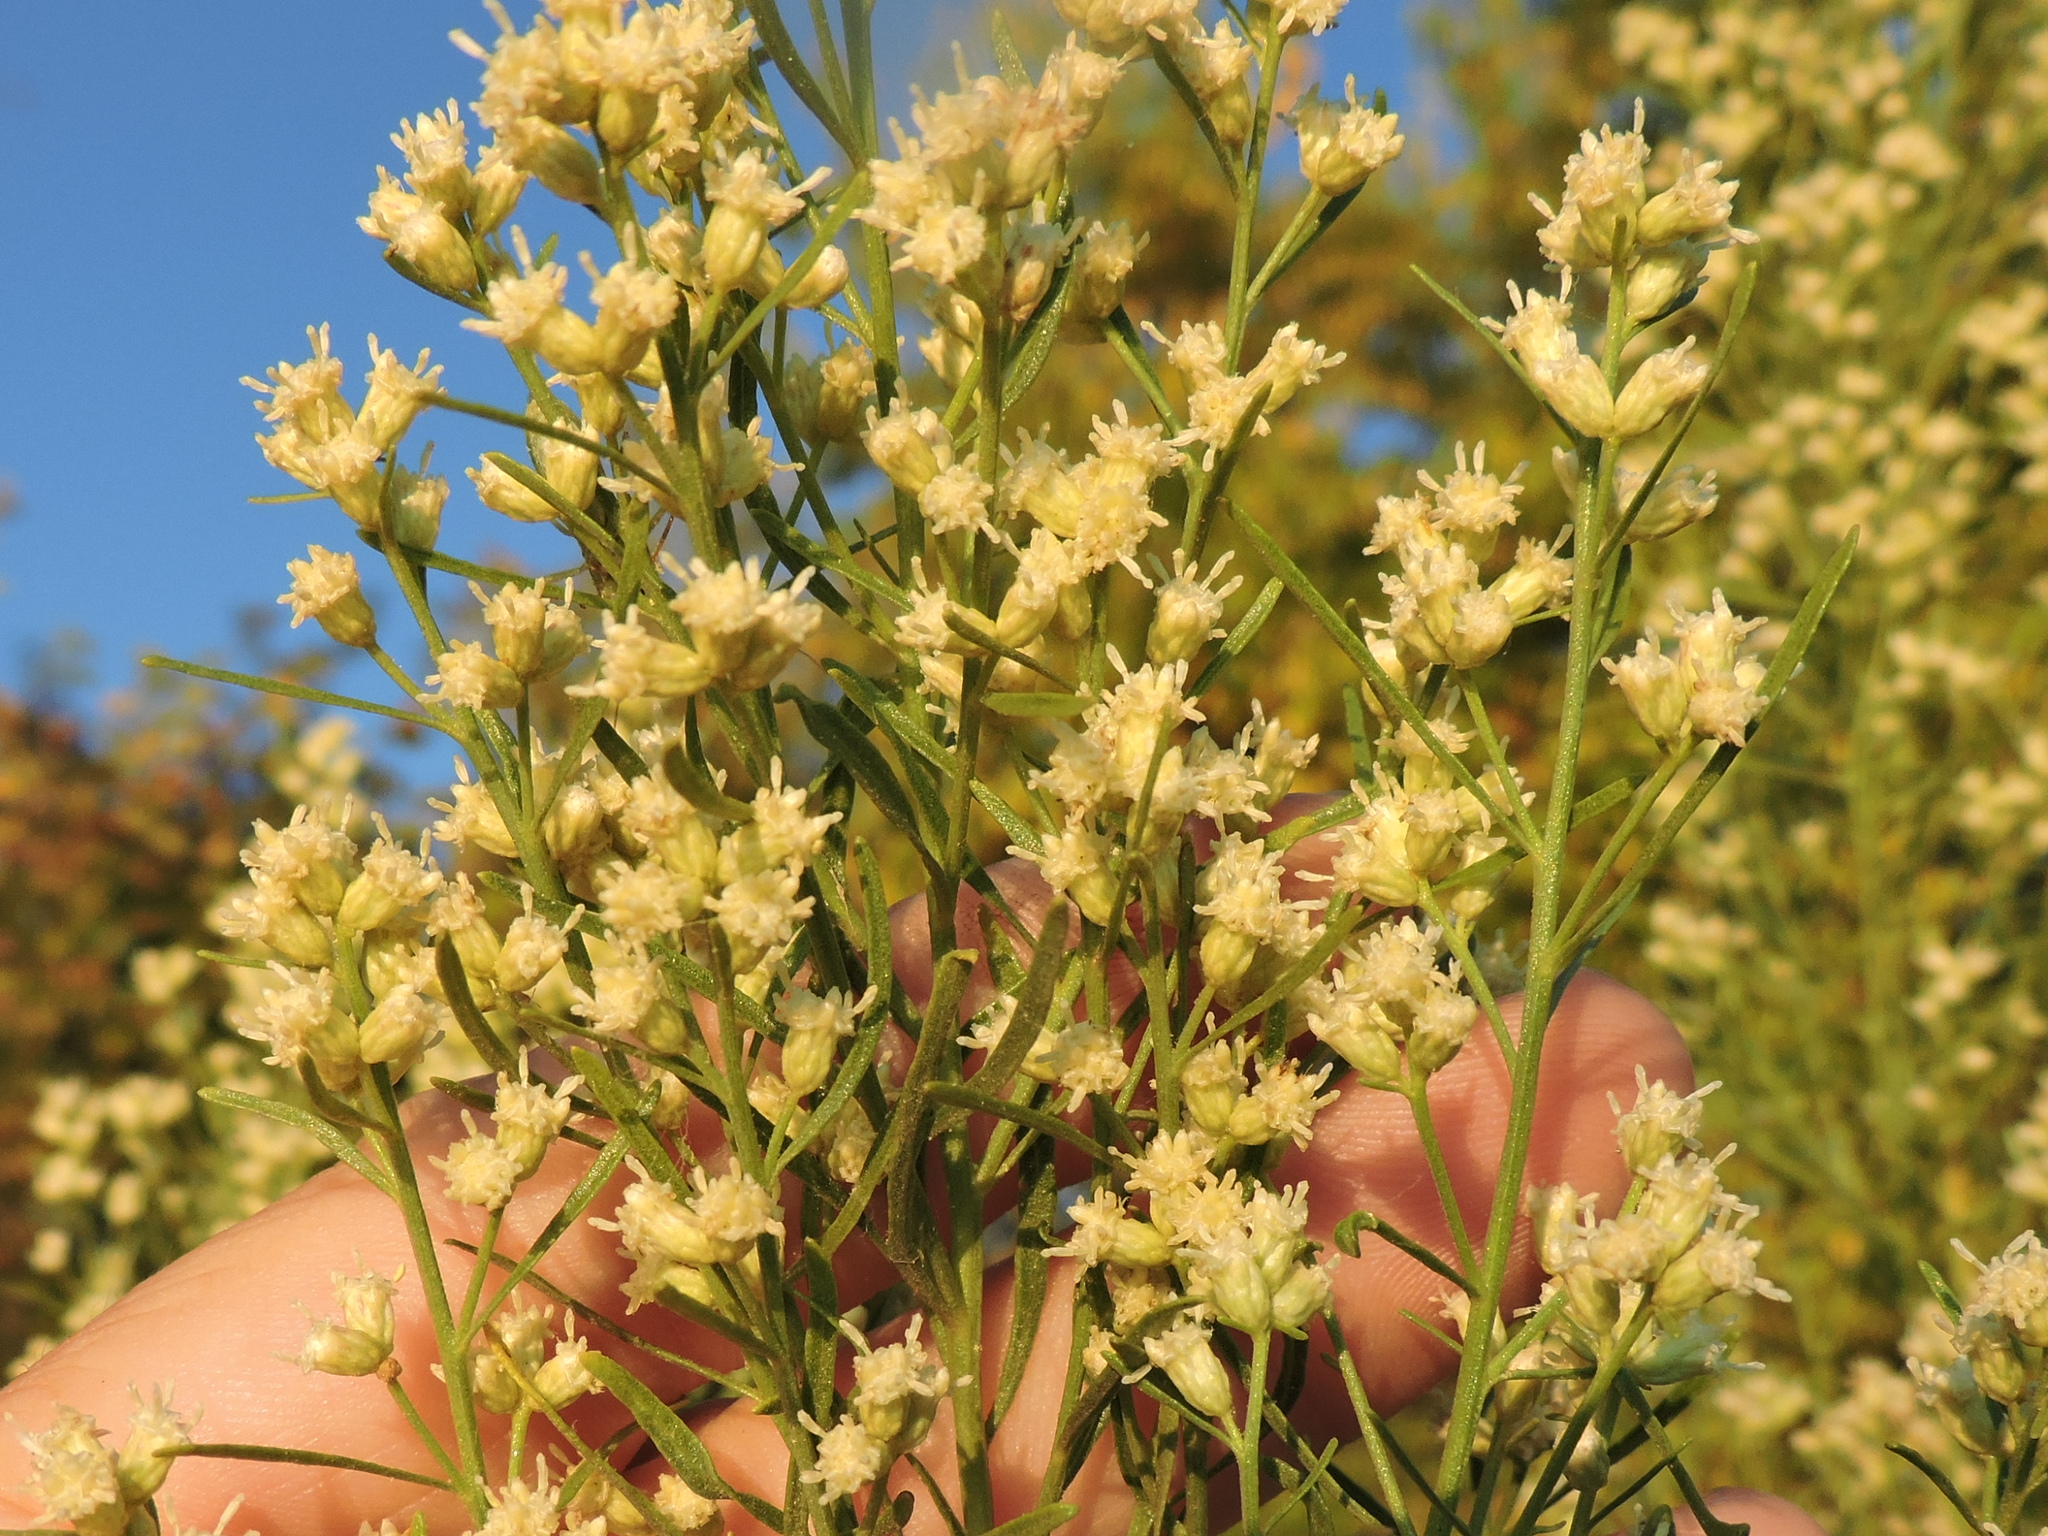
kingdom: Plantae
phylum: Tracheophyta
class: Magnoliopsida
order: Asterales
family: Asteraceae
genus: Baccharis
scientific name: Baccharis neglecta
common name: Roosevelt-weed
